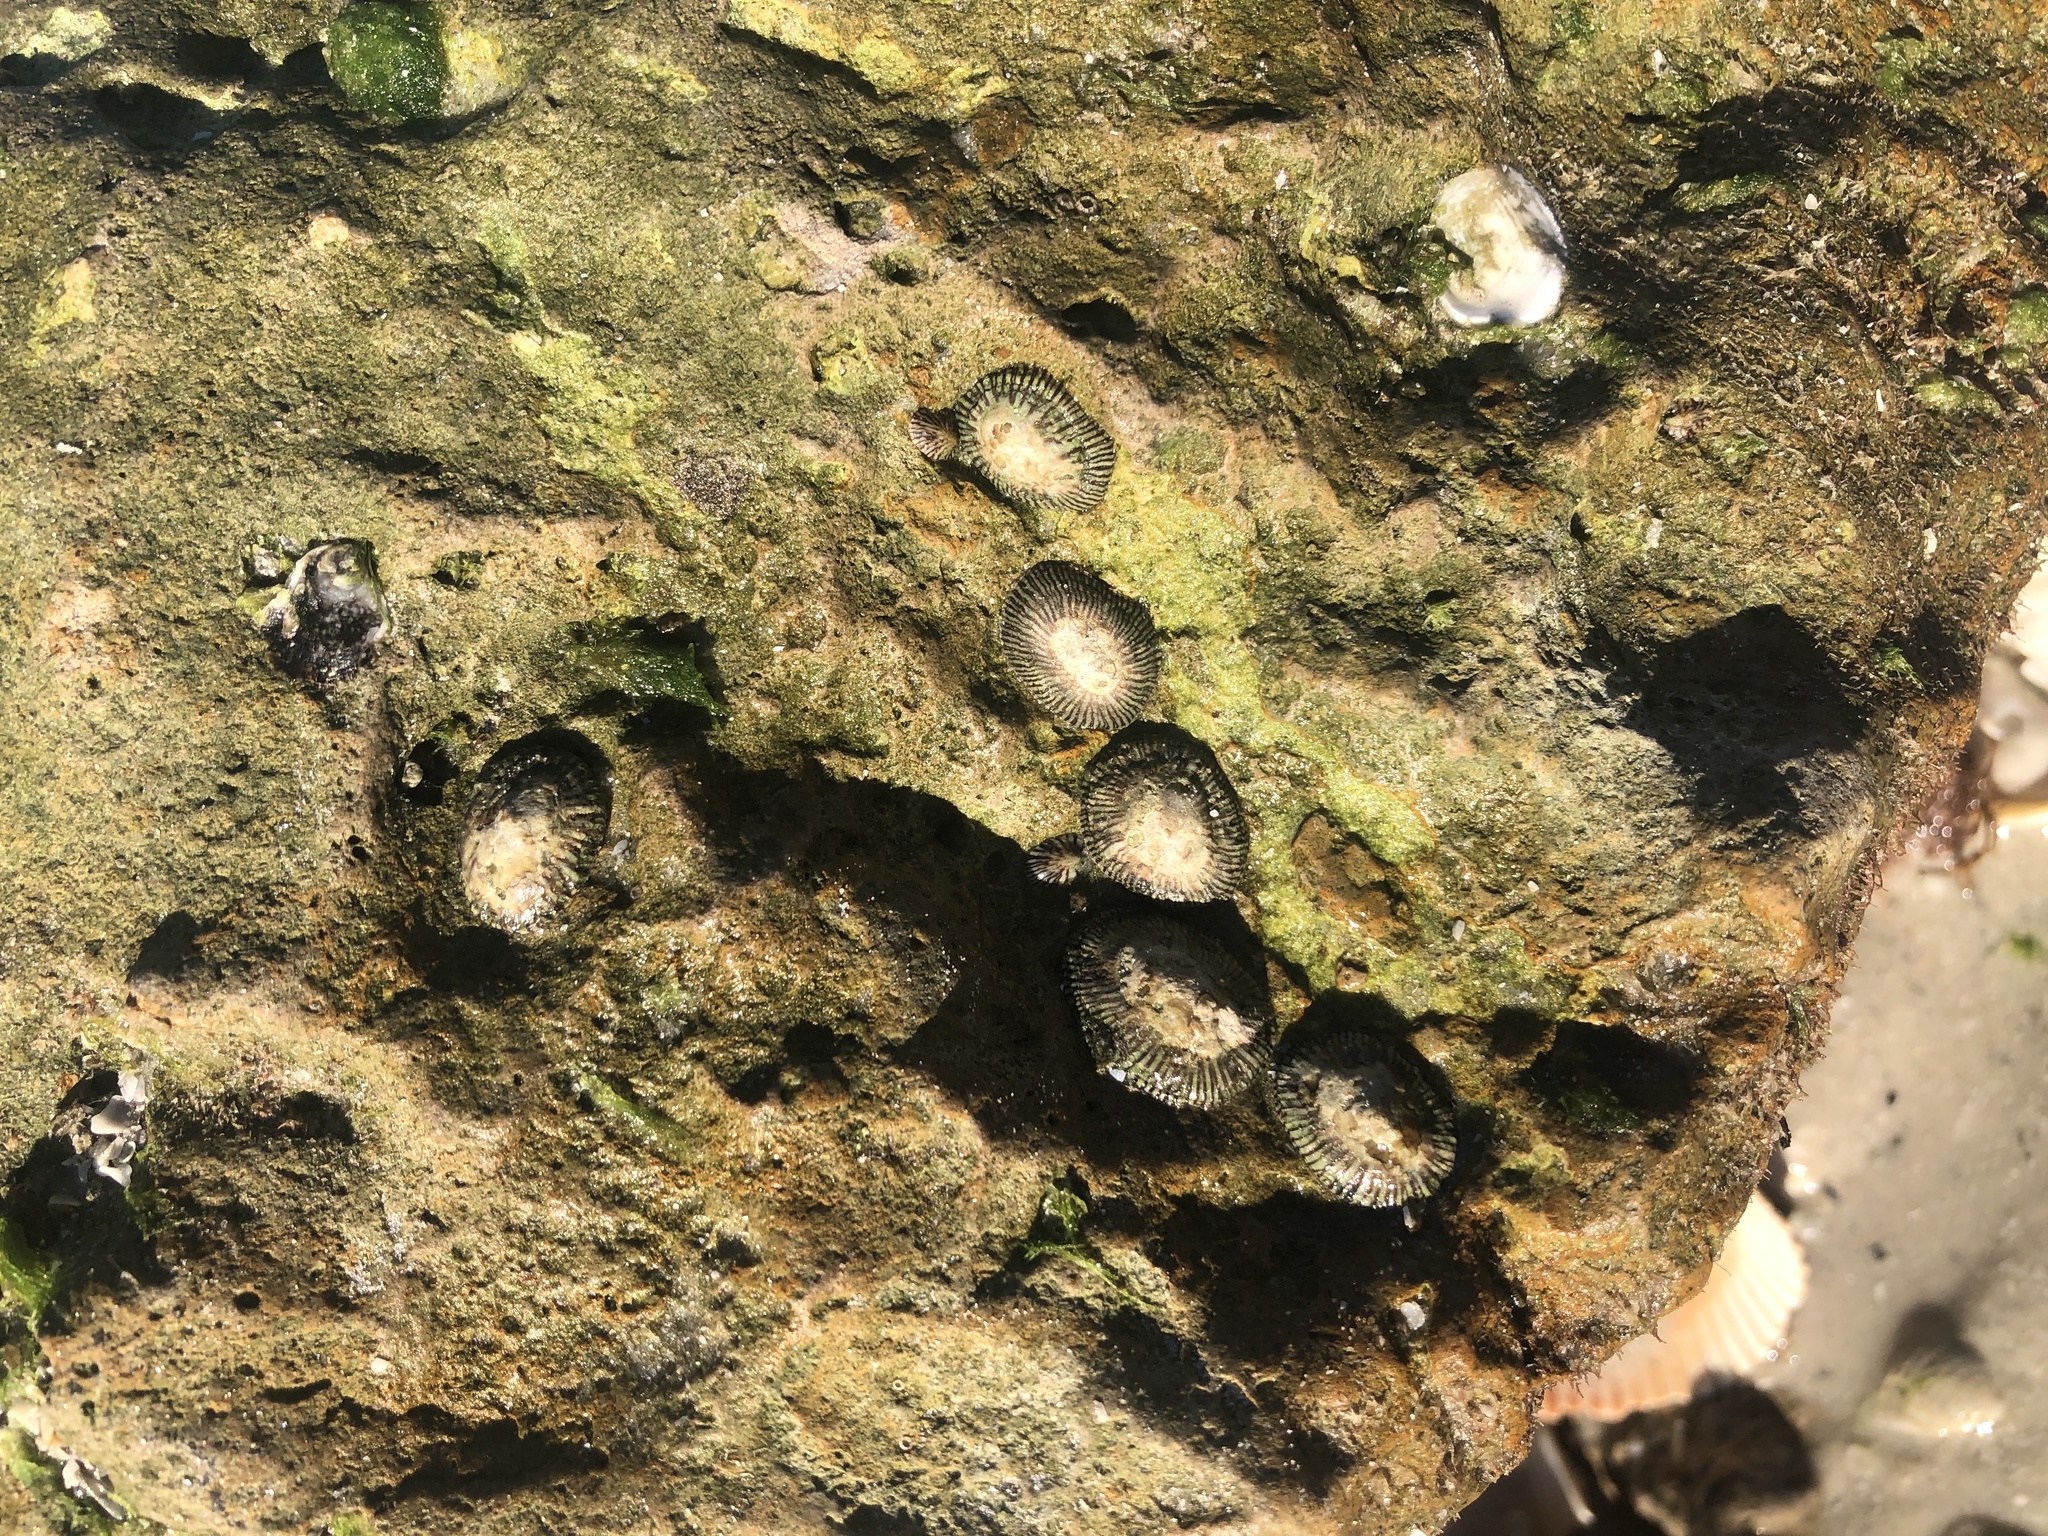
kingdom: Animalia
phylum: Mollusca
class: Gastropoda
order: Siphonariida
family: Siphonariidae
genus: Siphonaria
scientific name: Siphonaria naufragum
